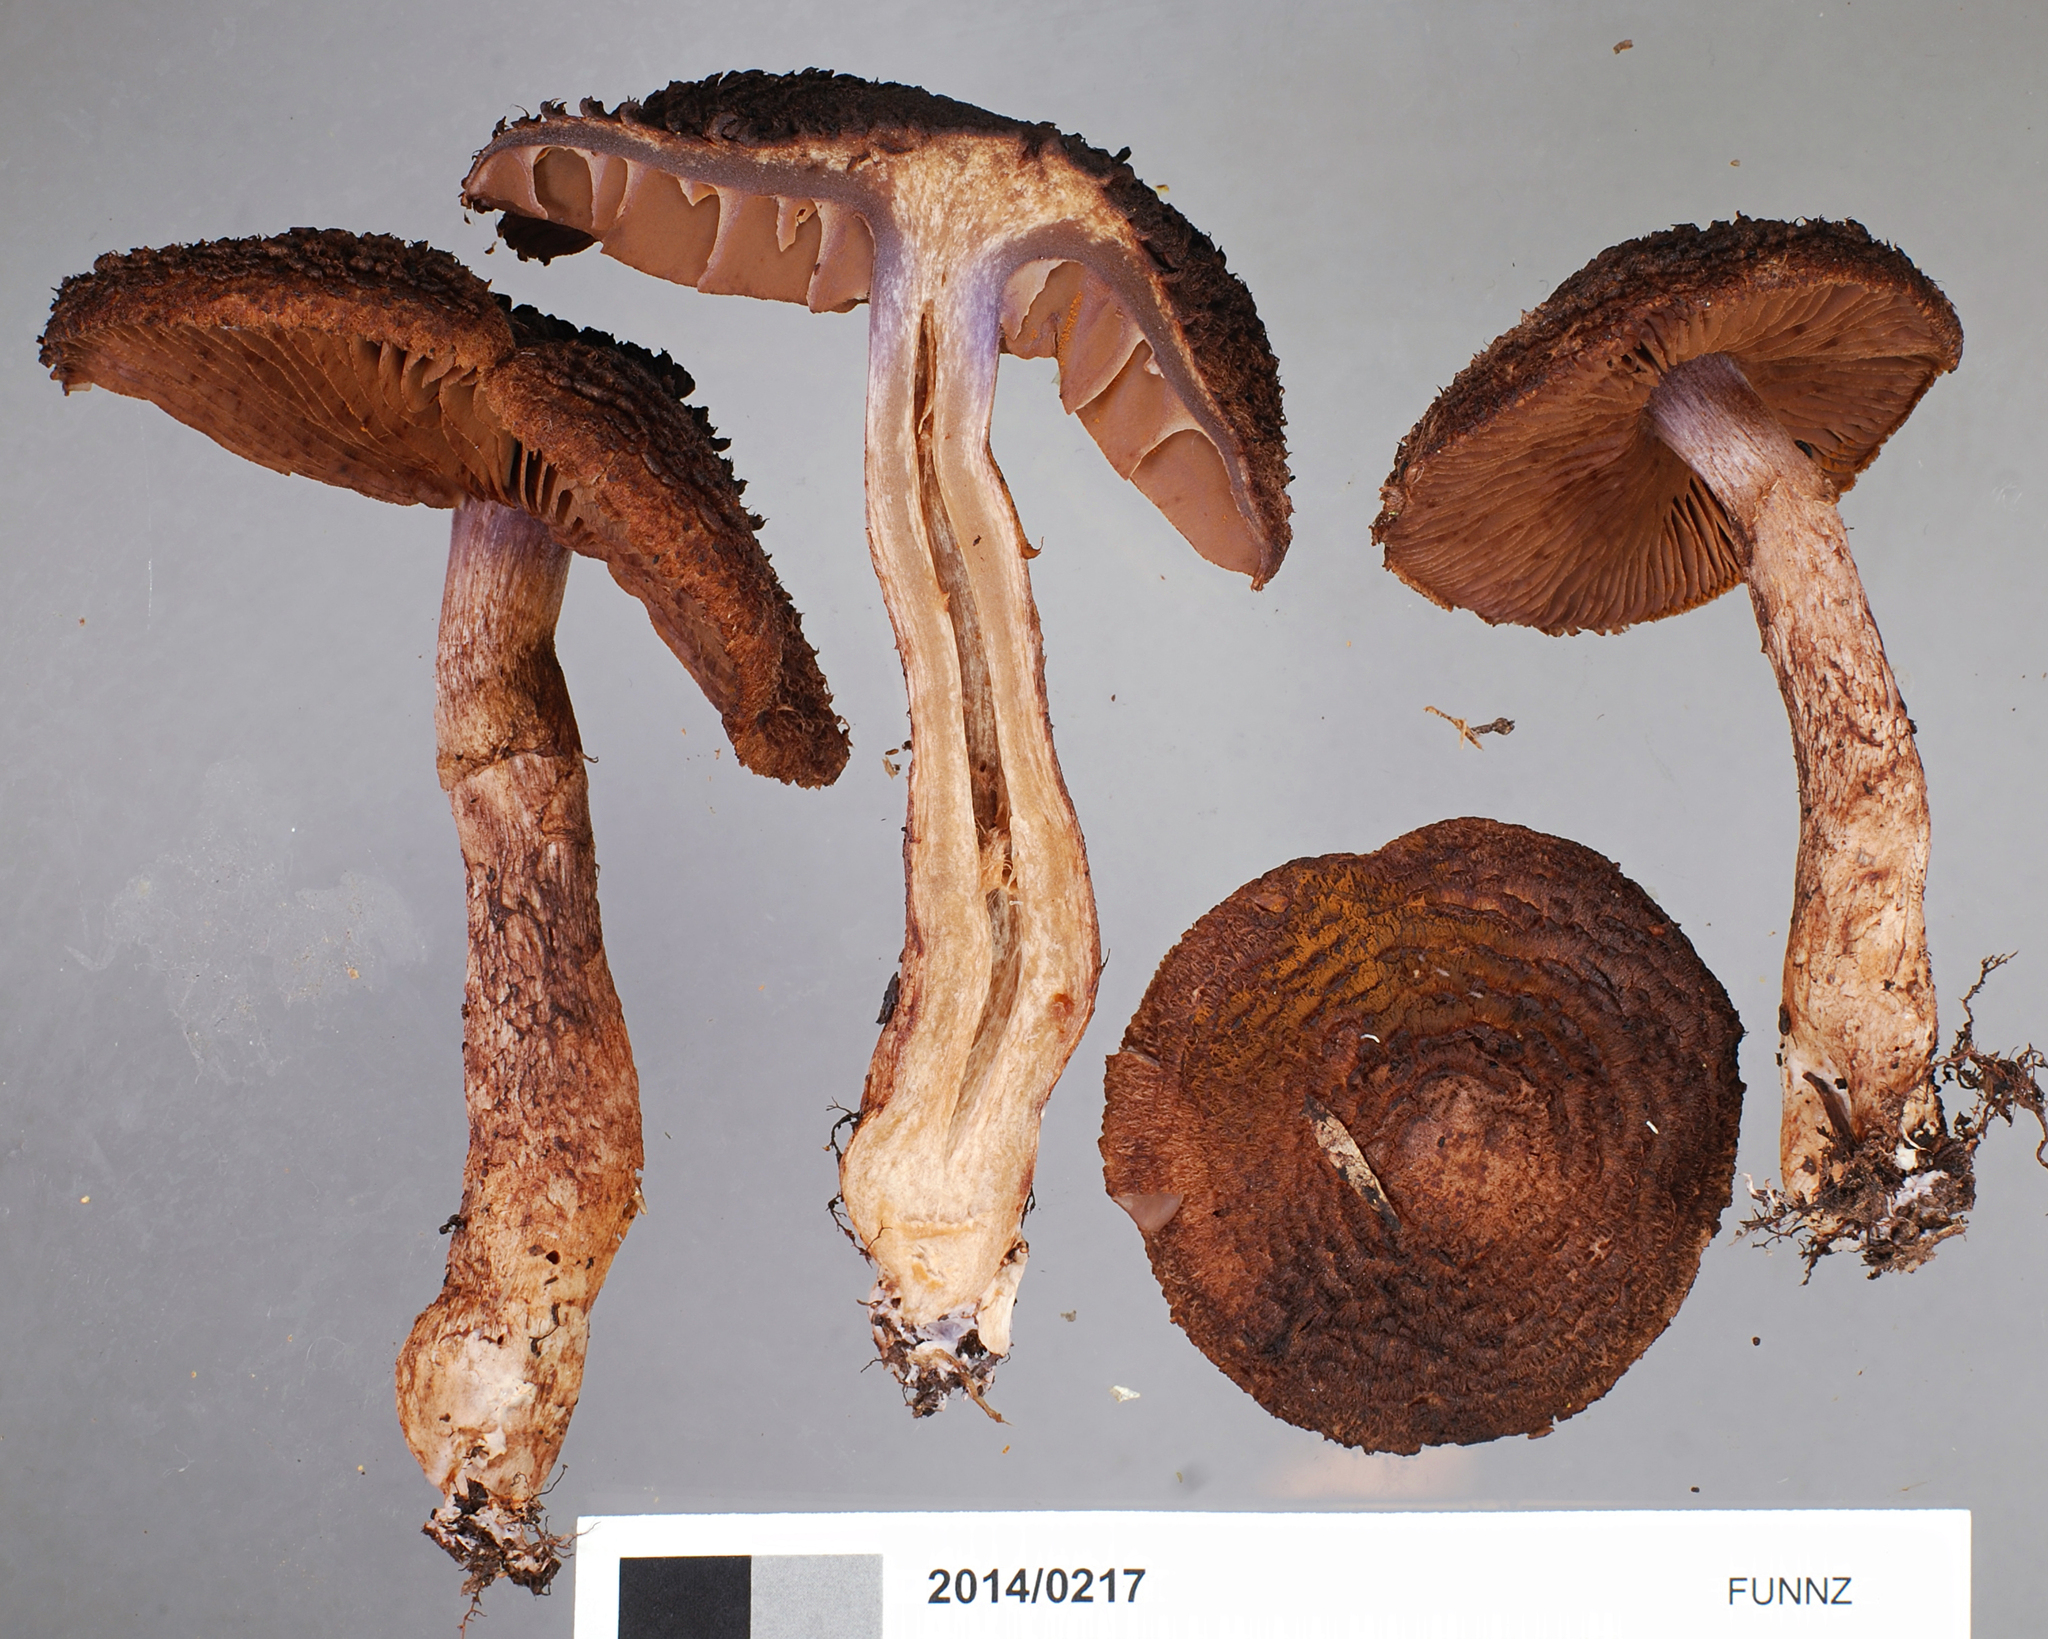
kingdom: Fungi
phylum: Basidiomycota
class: Agaricomycetes
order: Agaricales
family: Cortinariaceae
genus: Cortinarius
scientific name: Cortinarius ursus
